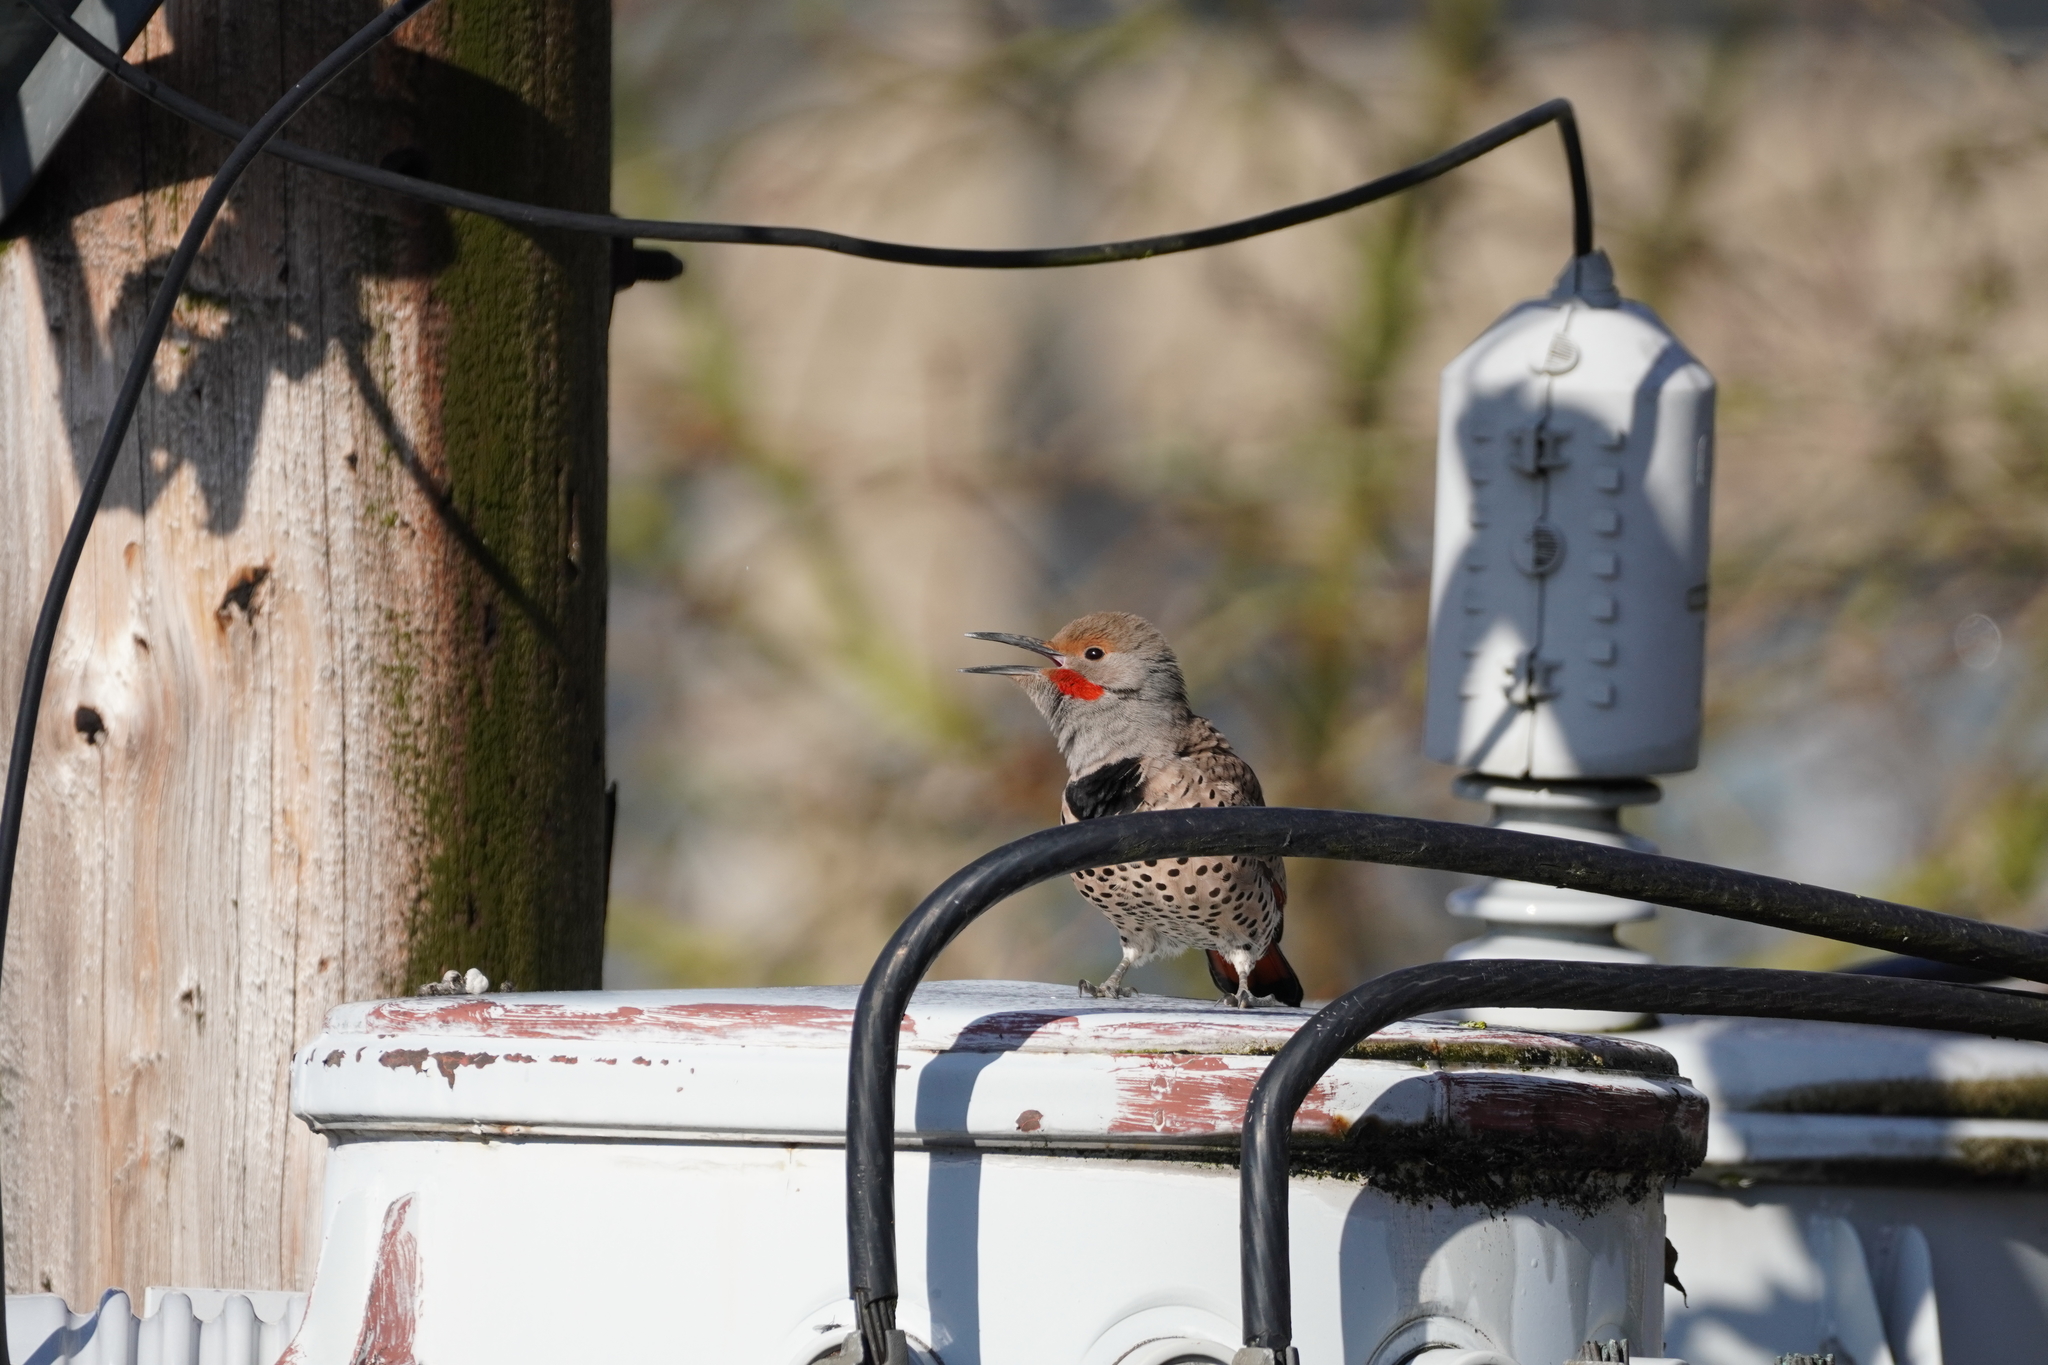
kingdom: Animalia
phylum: Chordata
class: Aves
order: Piciformes
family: Picidae
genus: Colaptes
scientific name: Colaptes auratus
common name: Northern flicker
